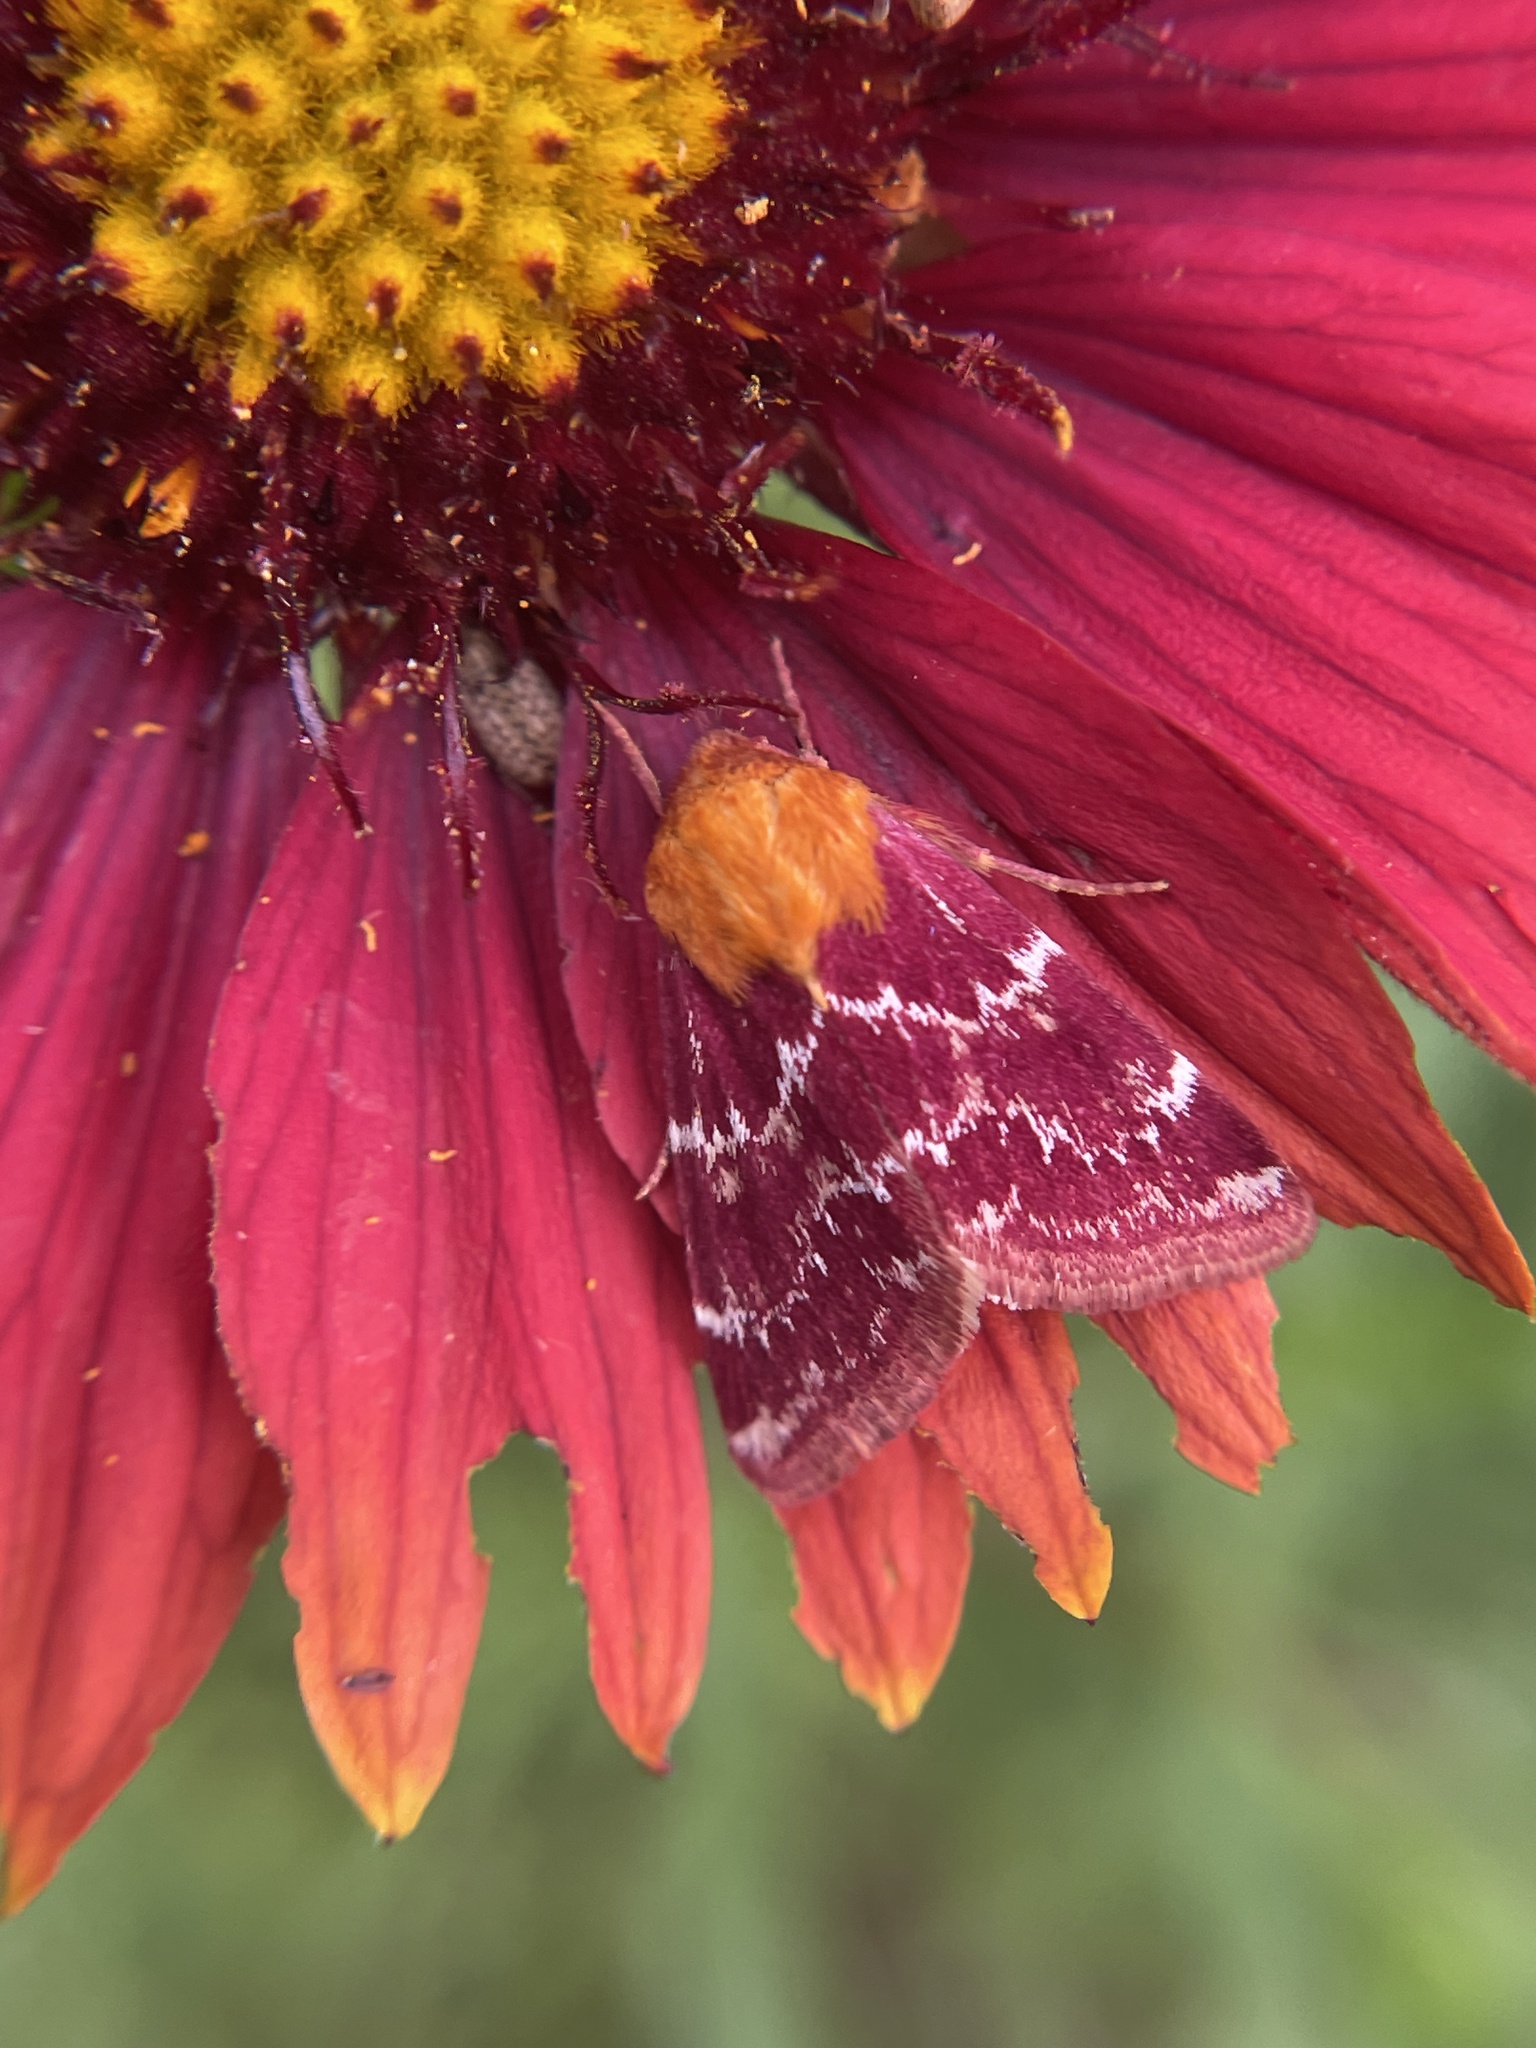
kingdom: Animalia
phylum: Arthropoda
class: Insecta
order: Lepidoptera
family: Noctuidae
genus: Schinia
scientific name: Schinia volupia
